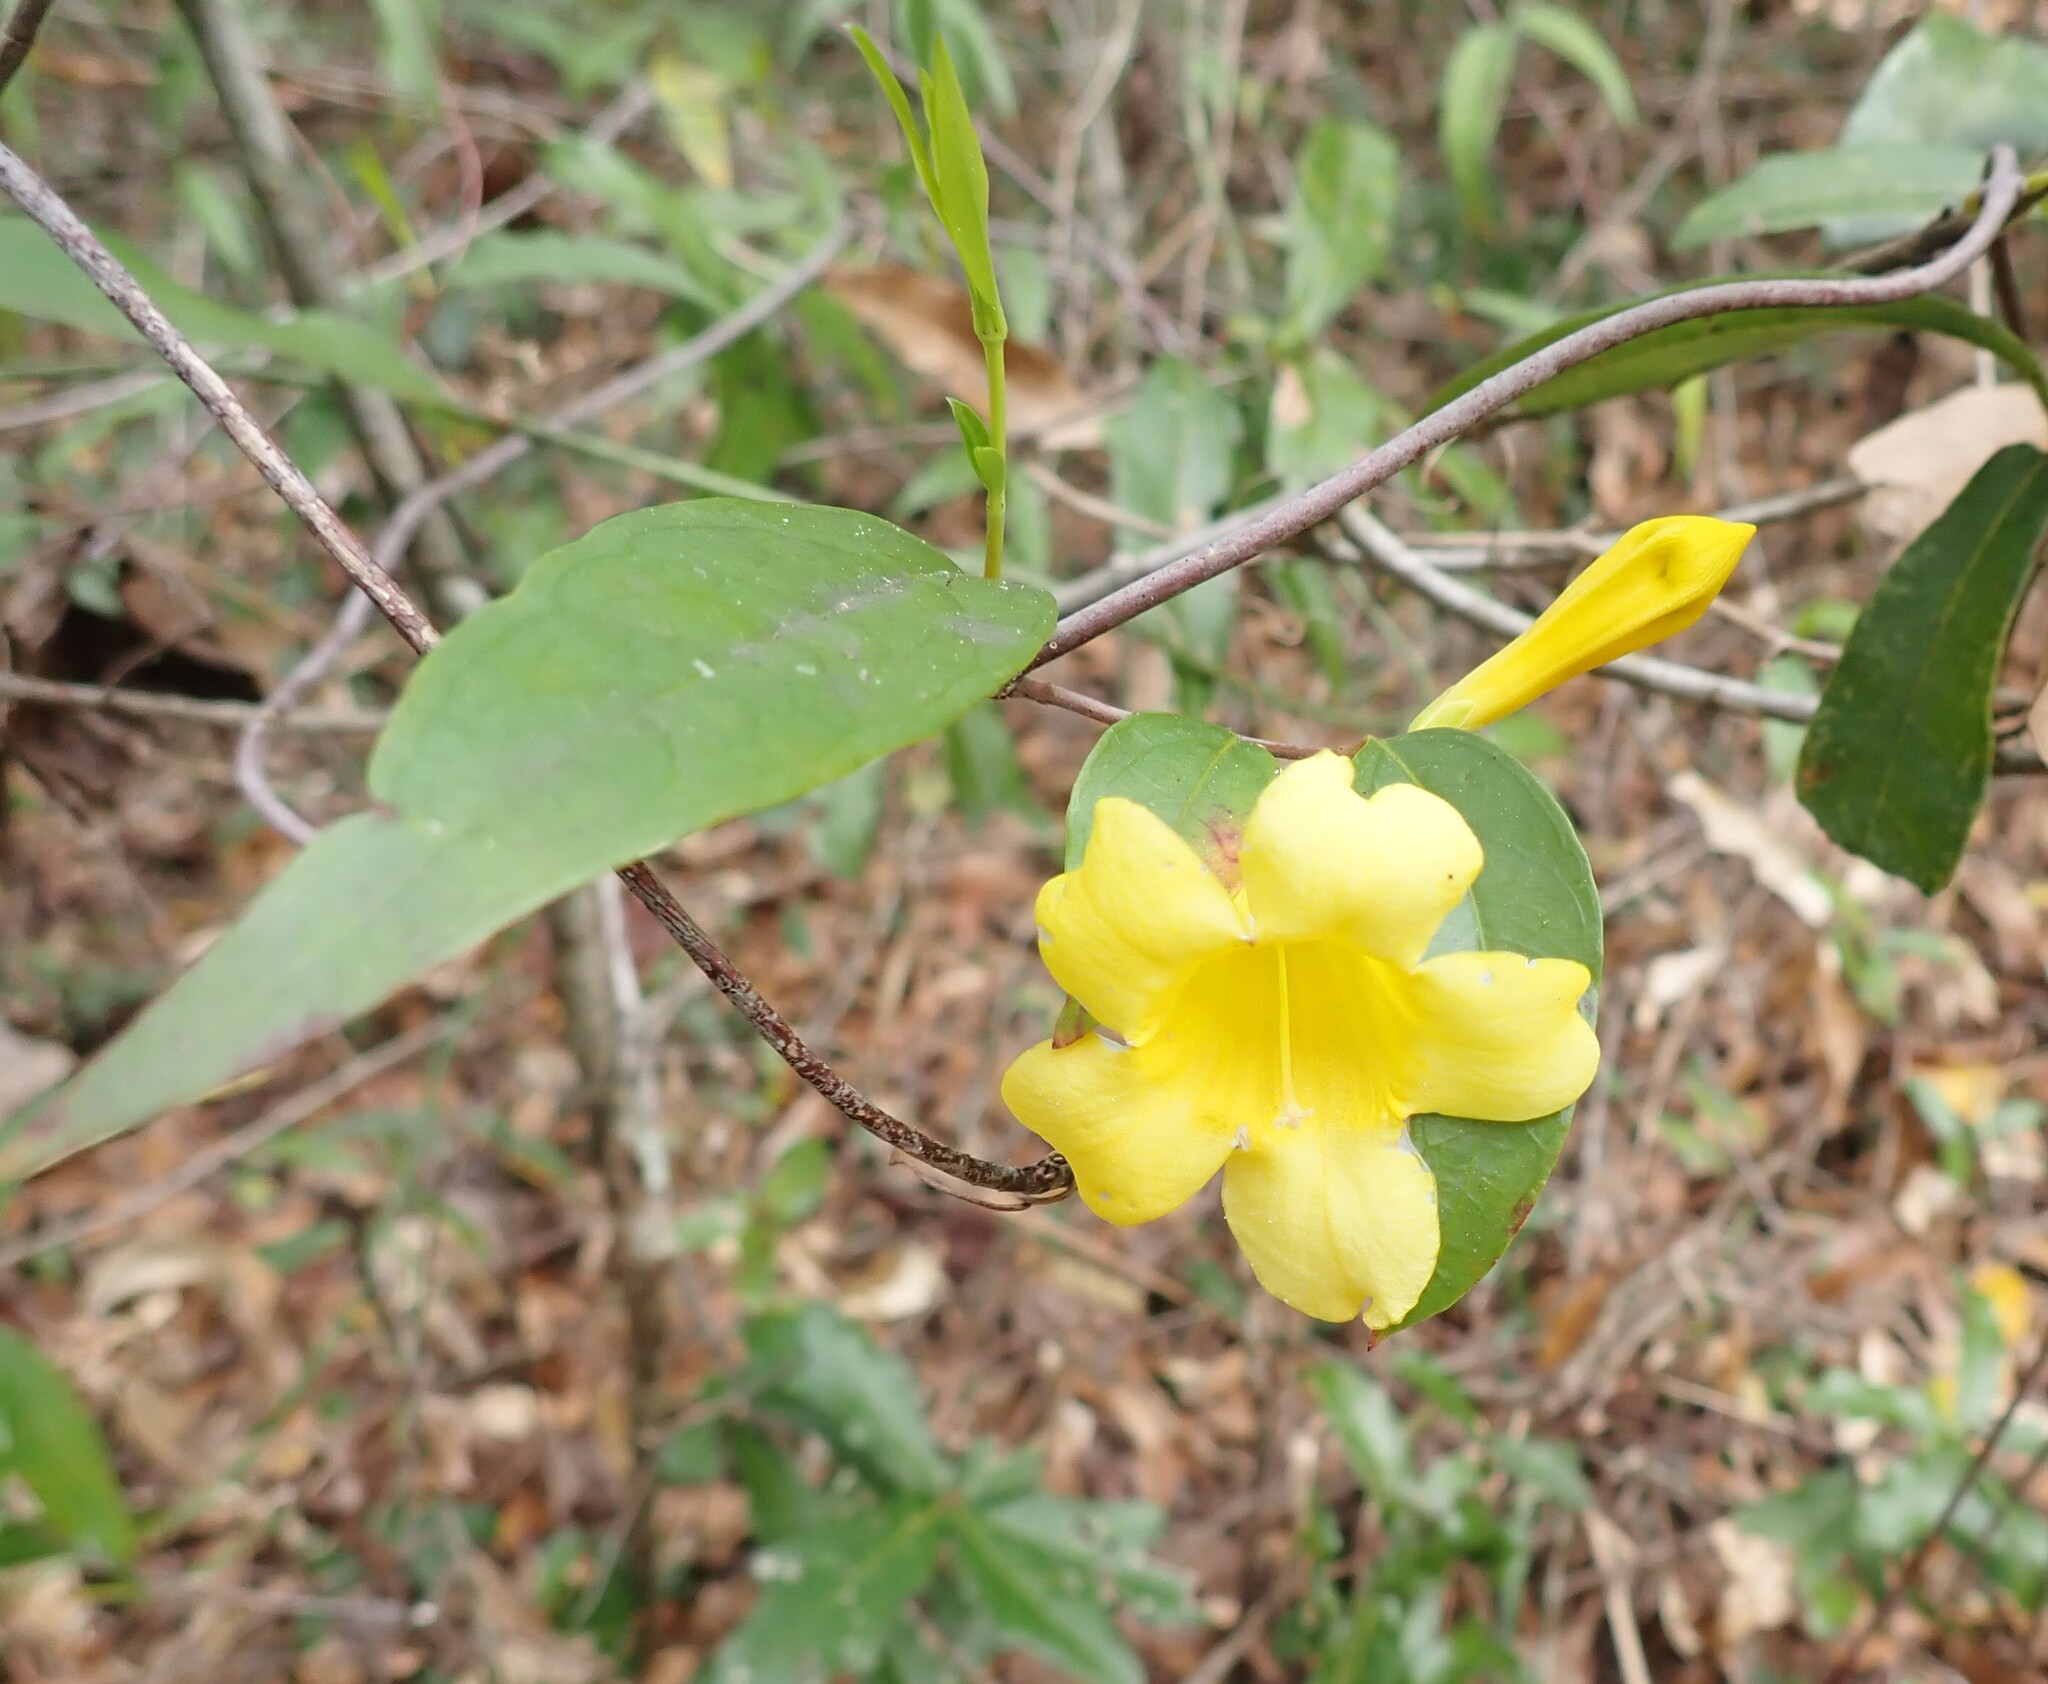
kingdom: Plantae
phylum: Tracheophyta
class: Magnoliopsida
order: Gentianales
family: Gelsemiaceae
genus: Gelsemium
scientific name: Gelsemium sempervirens
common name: Carolina-jasmine
